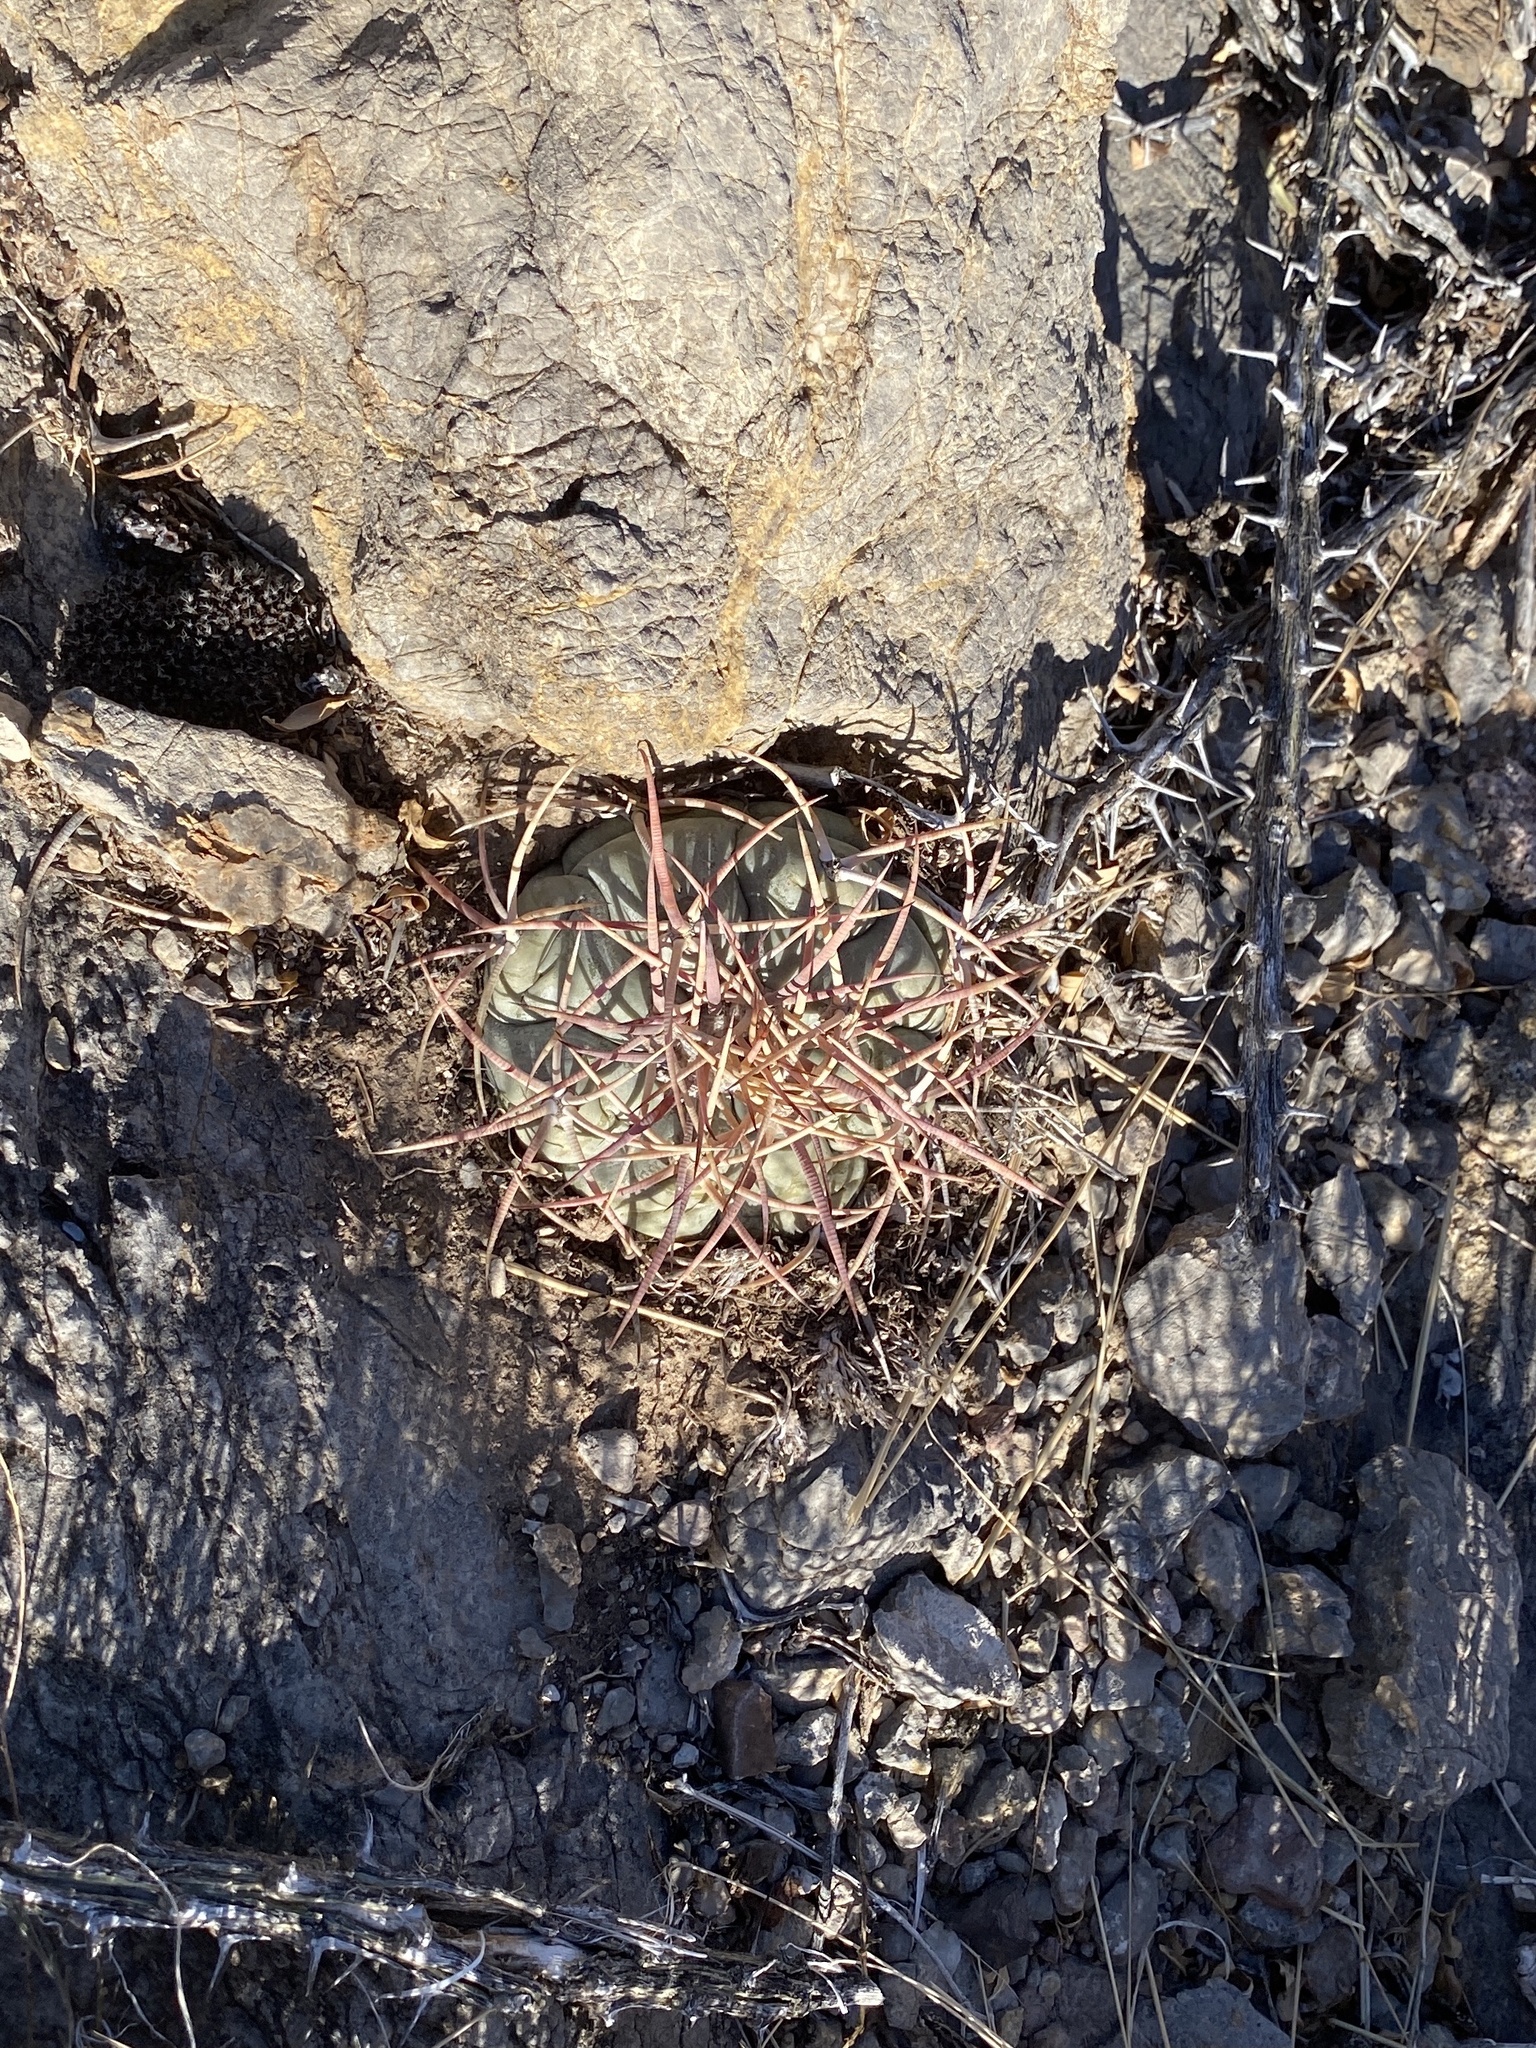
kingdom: Plantae
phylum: Tracheophyta
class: Magnoliopsida
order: Caryophyllales
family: Cactaceae
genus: Echinocactus
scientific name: Echinocactus horizonthalonius
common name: Devilshead
